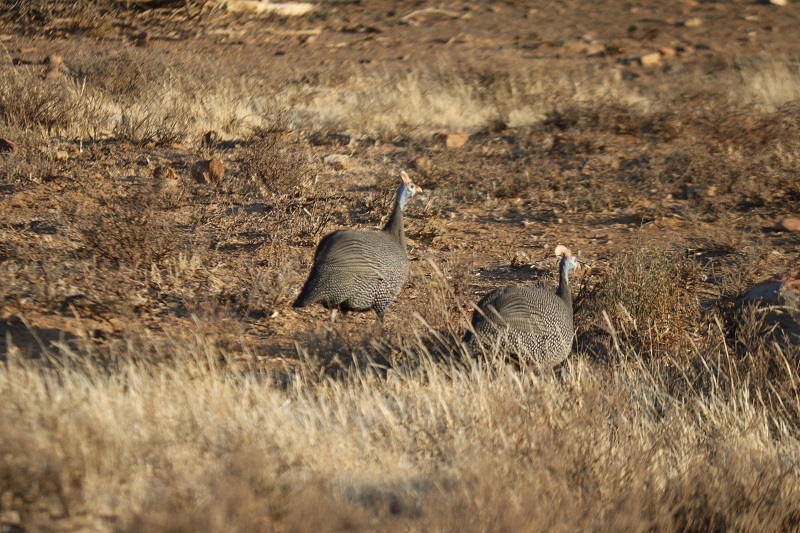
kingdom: Animalia
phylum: Chordata
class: Aves
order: Galliformes
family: Numididae
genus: Numida
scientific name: Numida meleagris
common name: Helmeted guineafowl
